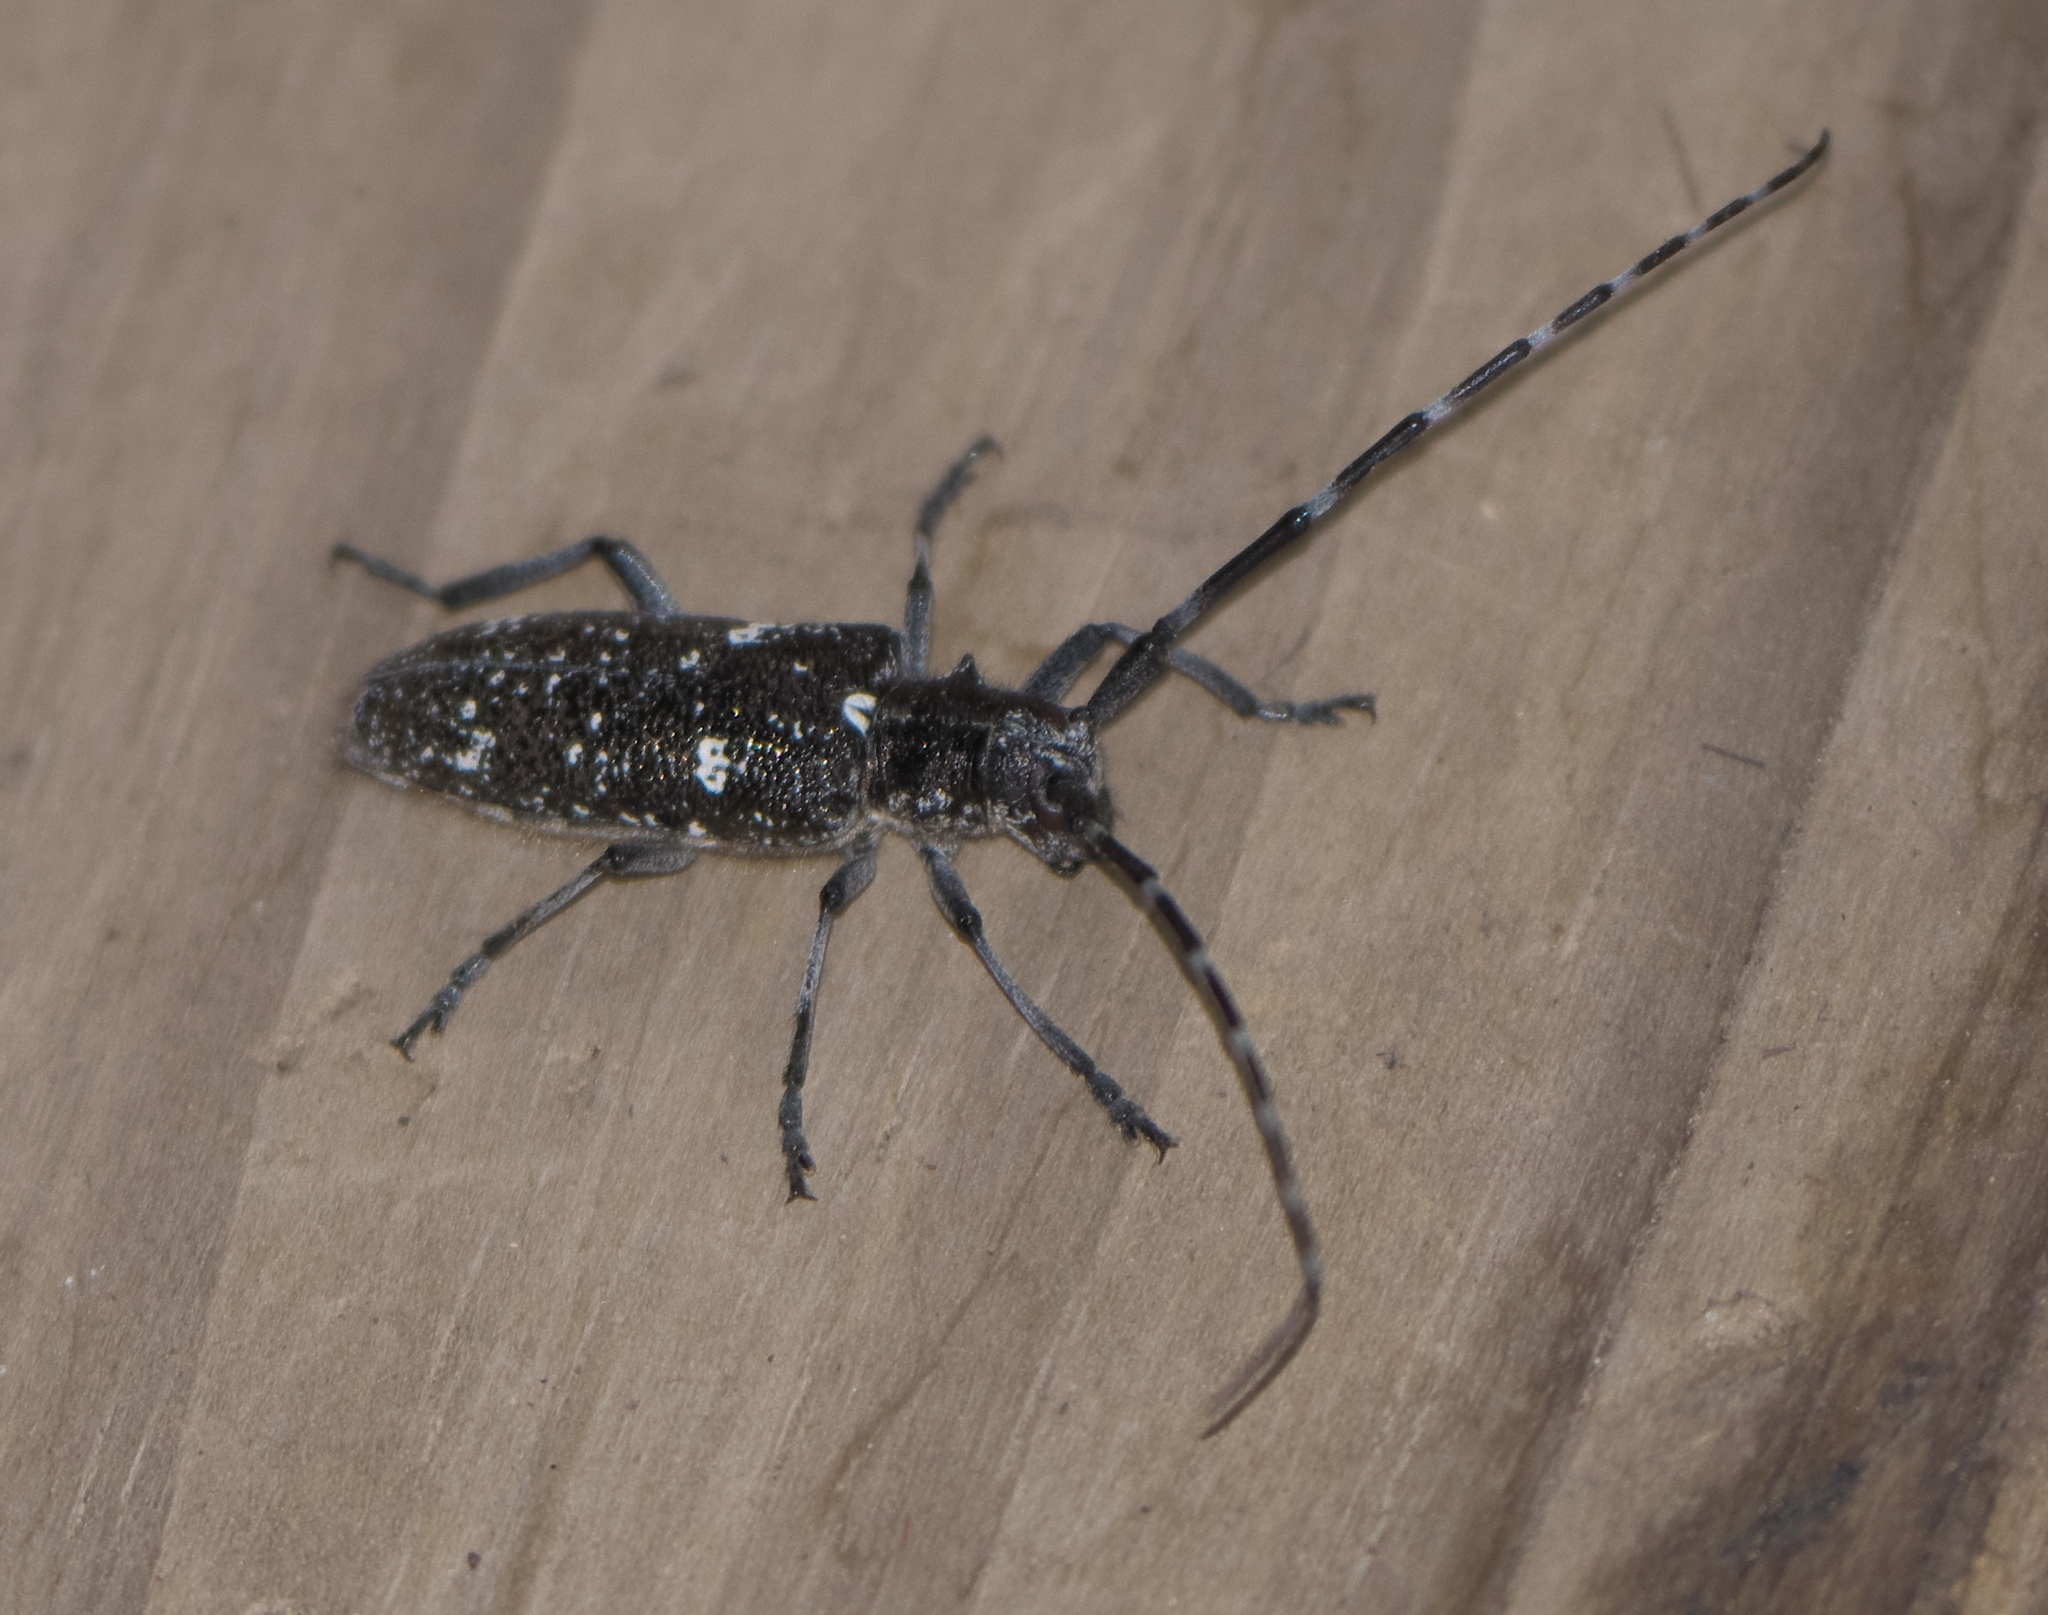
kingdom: Animalia
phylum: Arthropoda
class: Insecta
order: Coleoptera
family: Cerambycidae
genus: Monochamus
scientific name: Monochamus scutellatus
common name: White-spotted sawyer beetle
